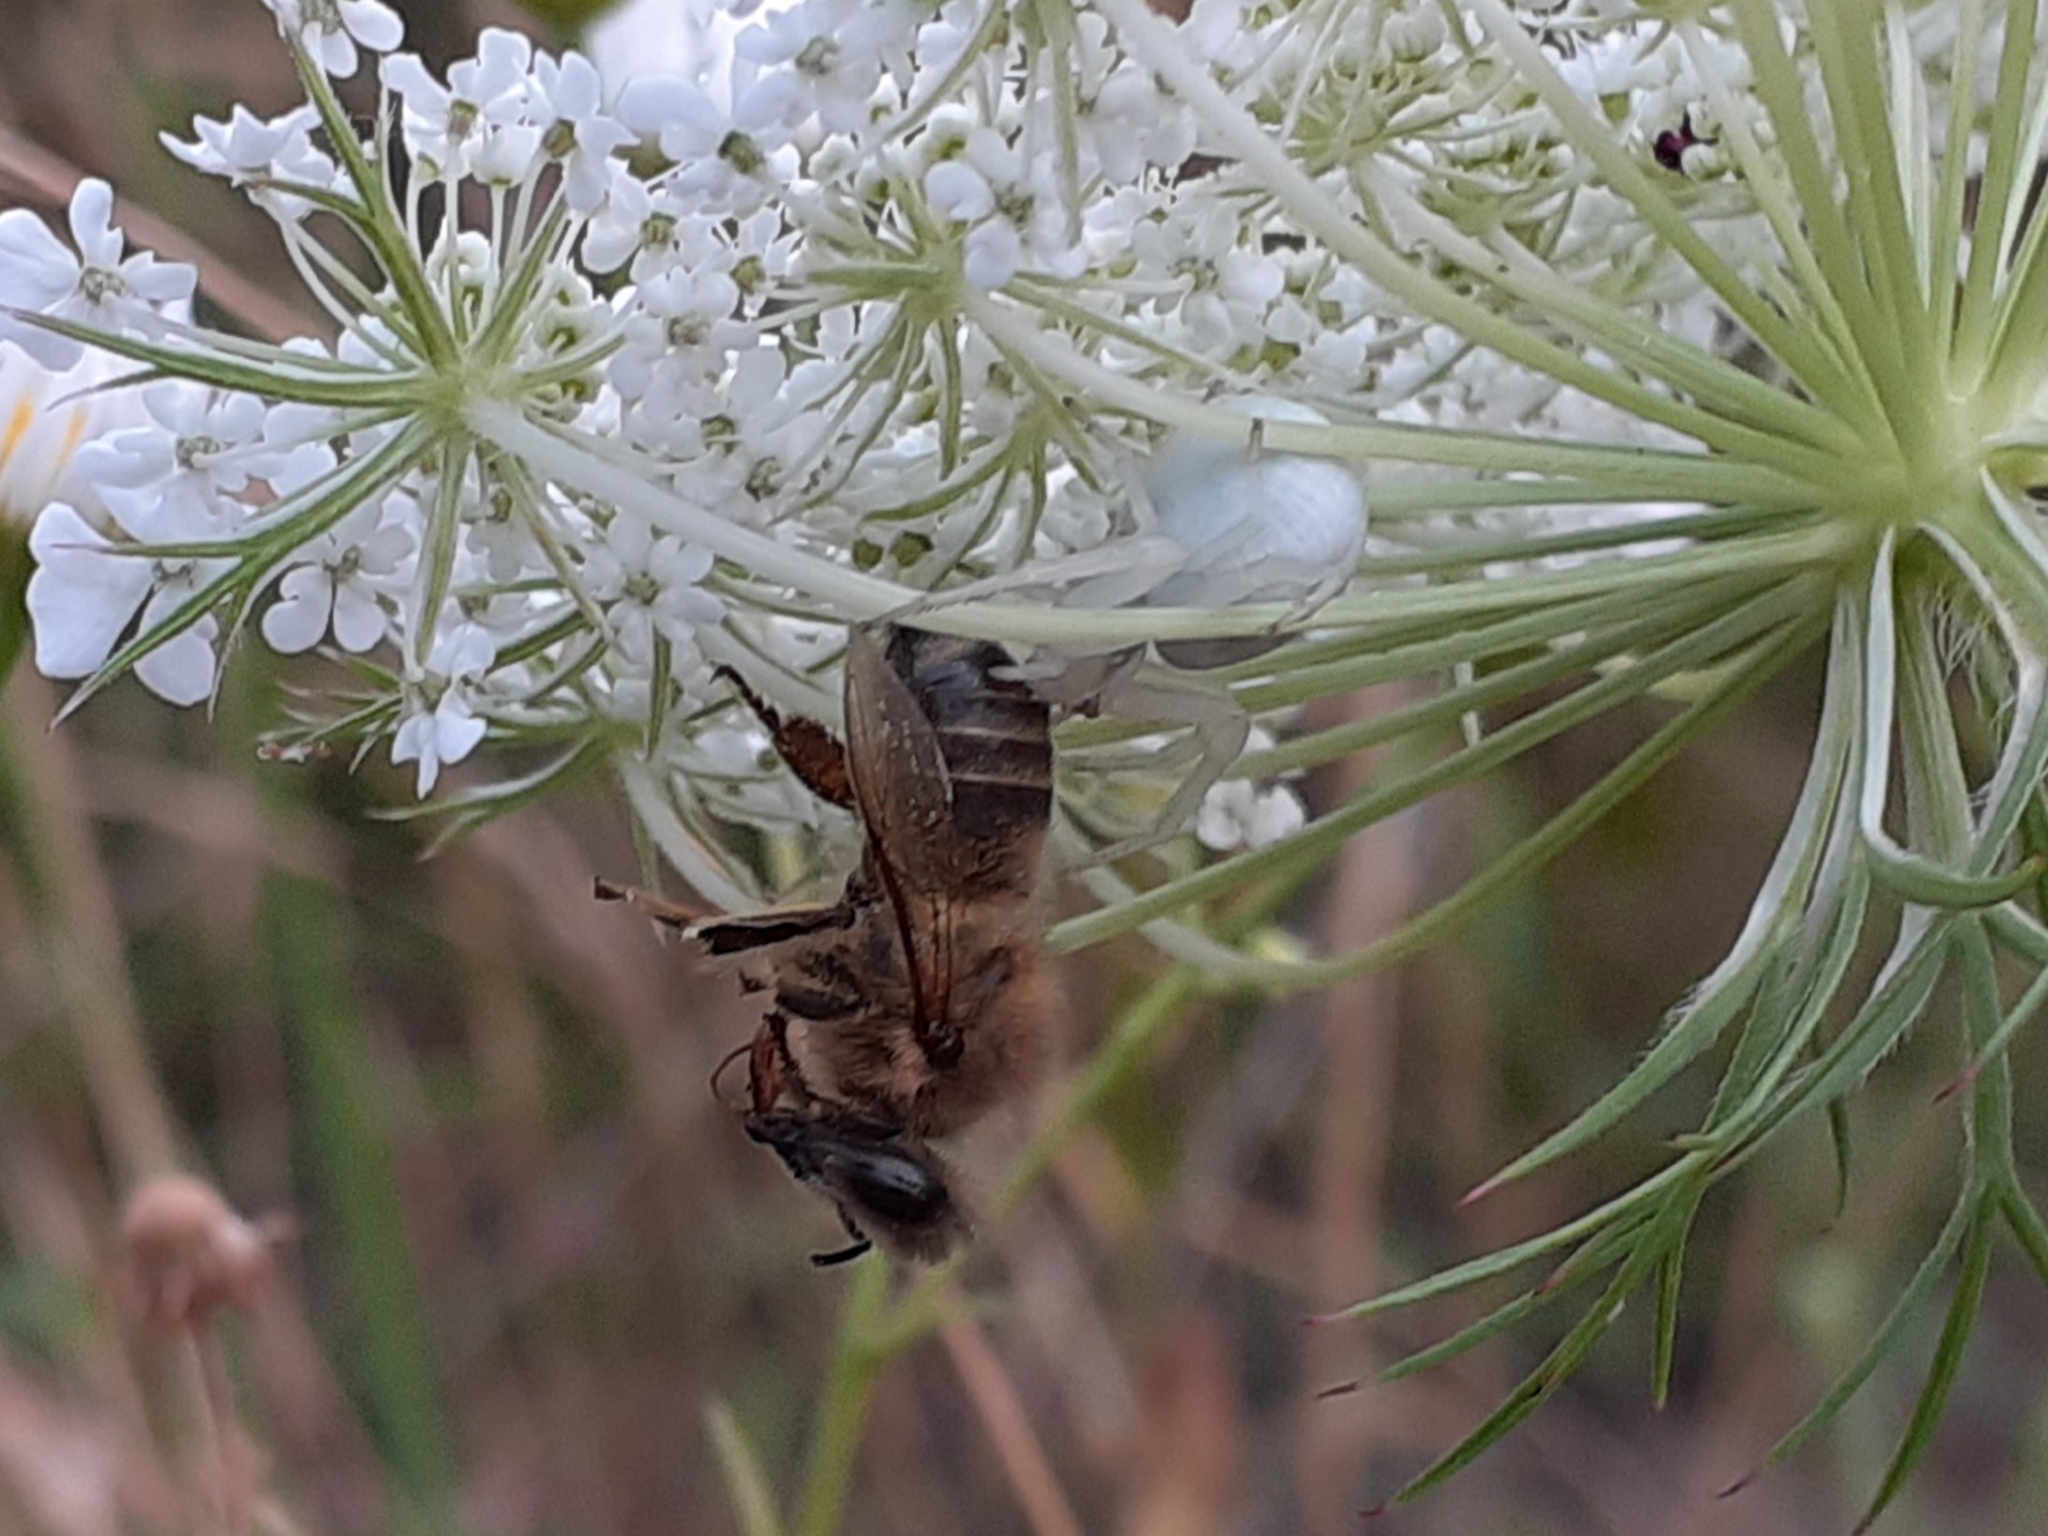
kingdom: Animalia
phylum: Arthropoda
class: Arachnida
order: Araneae
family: Thomisidae
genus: Misumena
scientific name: Misumena vatia
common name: Goldenrod crab spider
